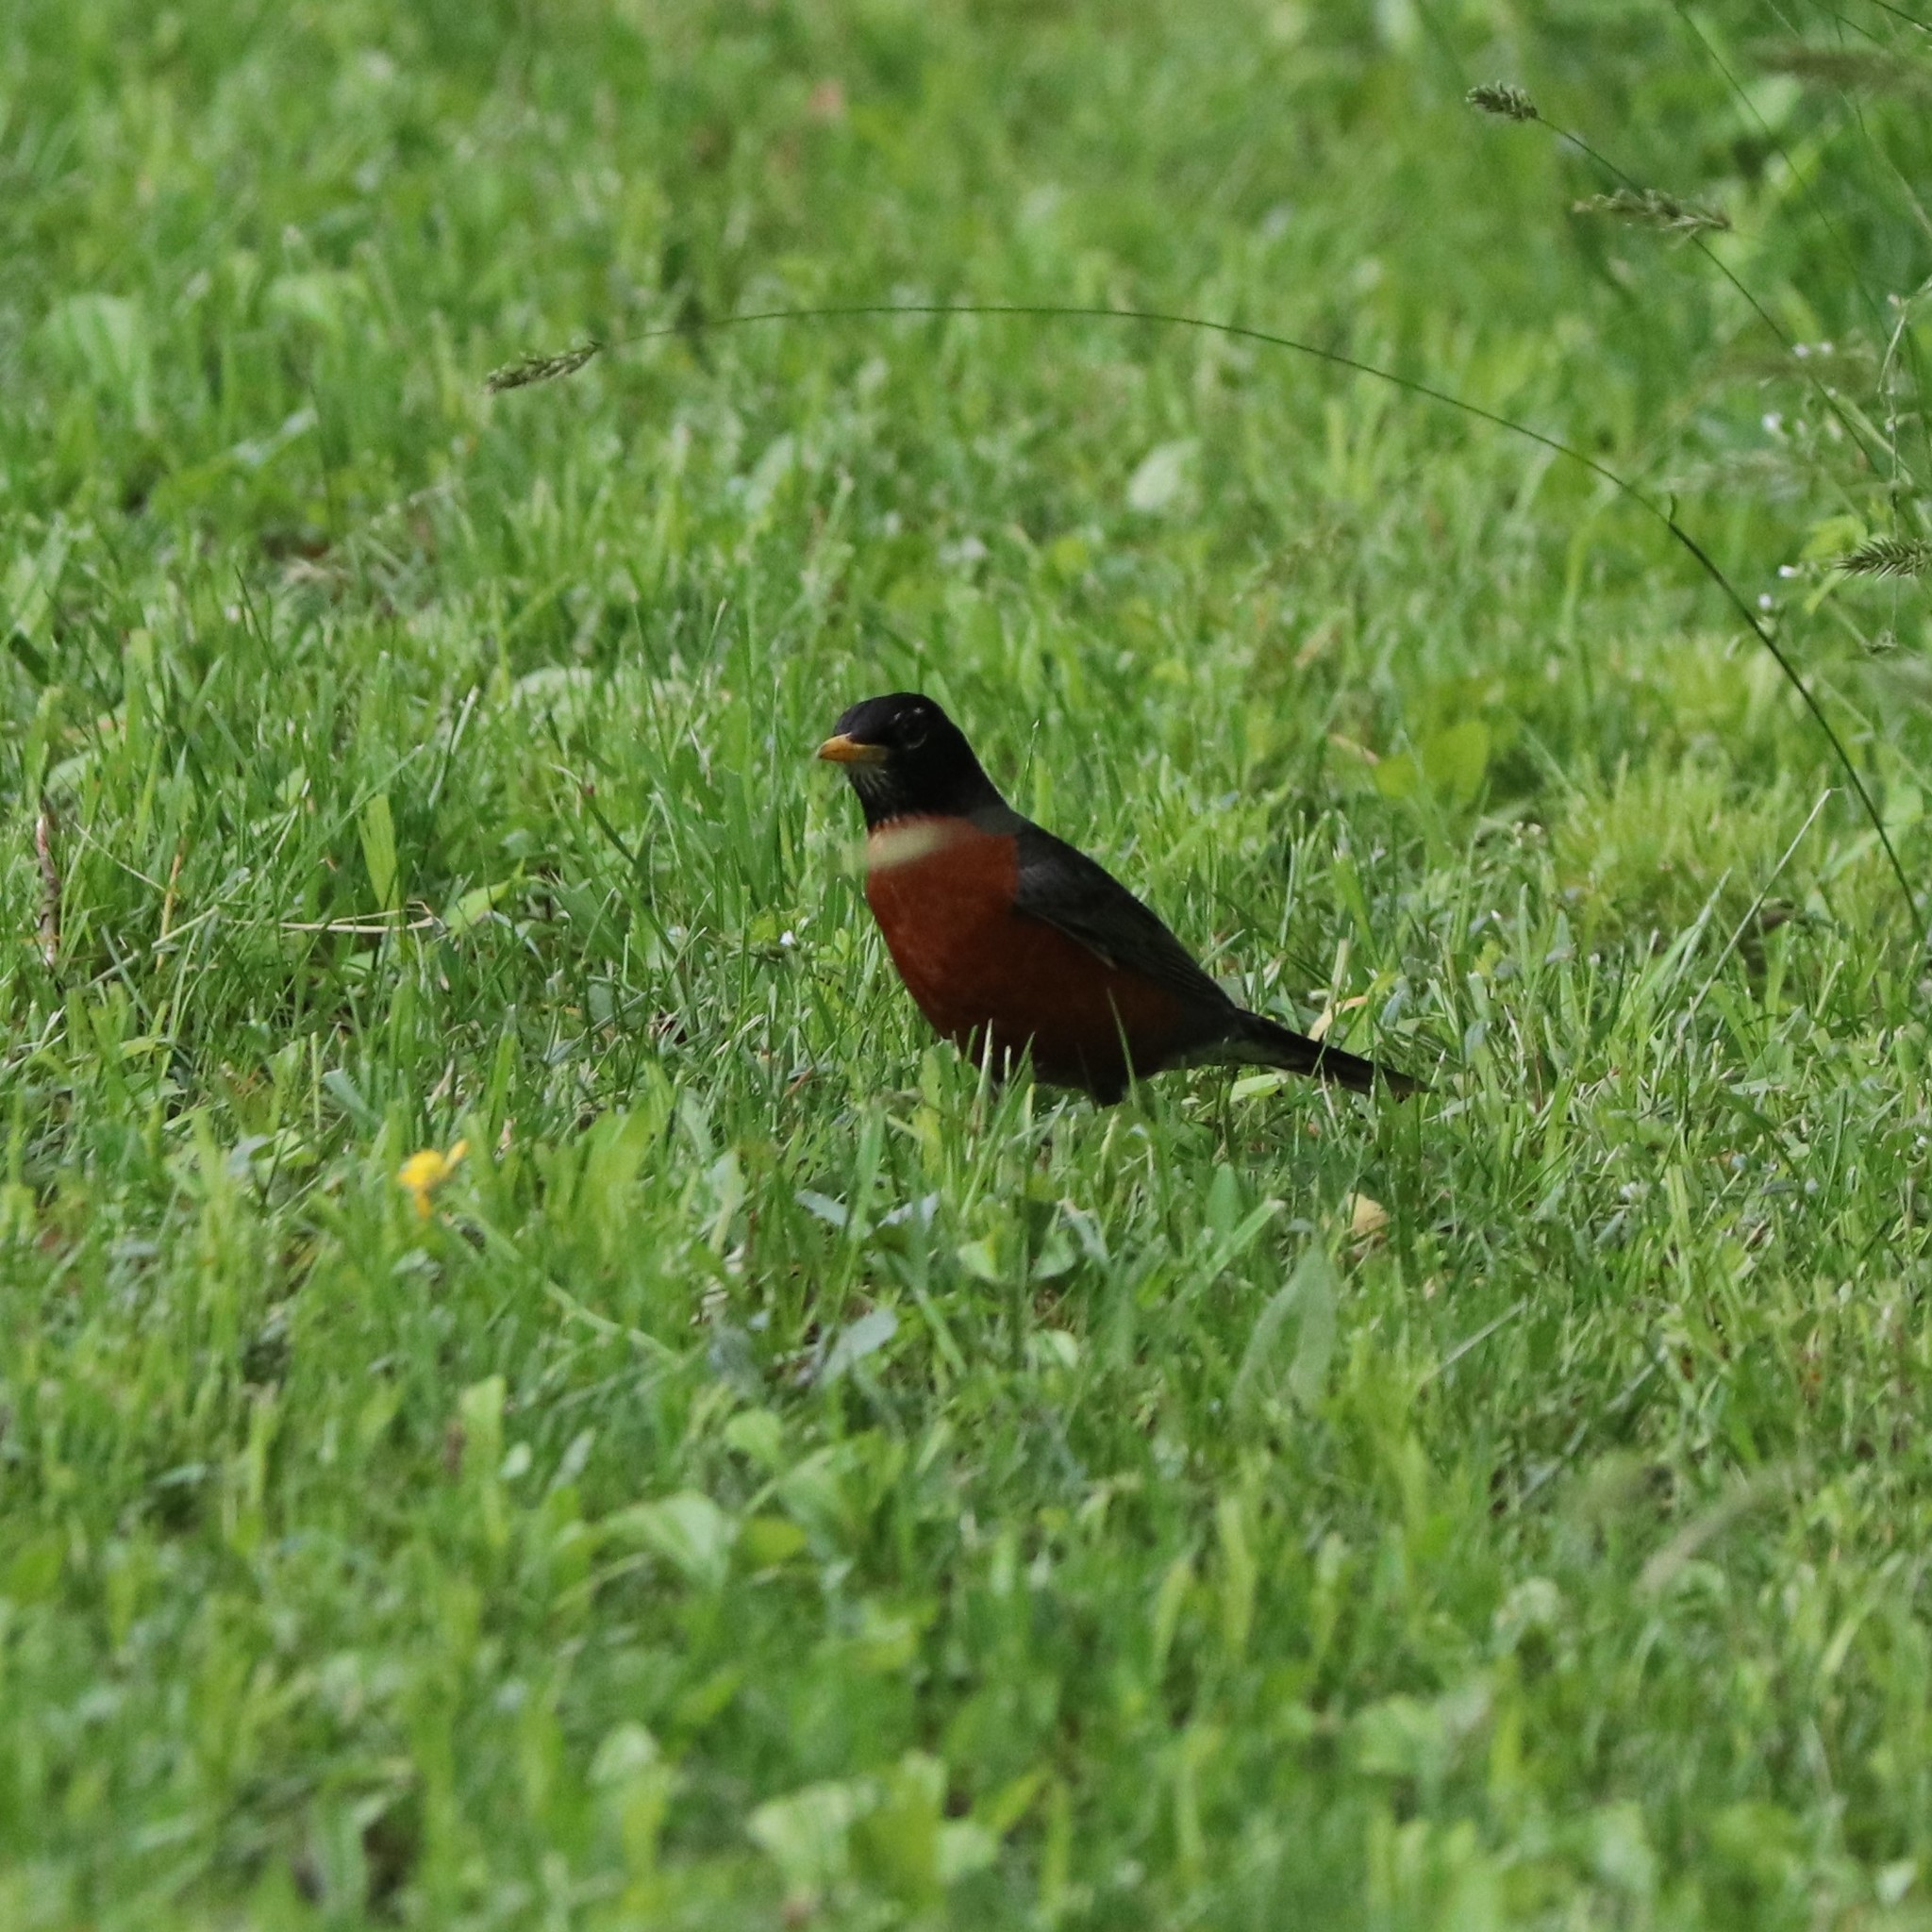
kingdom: Animalia
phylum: Chordata
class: Aves
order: Passeriformes
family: Turdidae
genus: Turdus
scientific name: Turdus migratorius
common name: American robin
